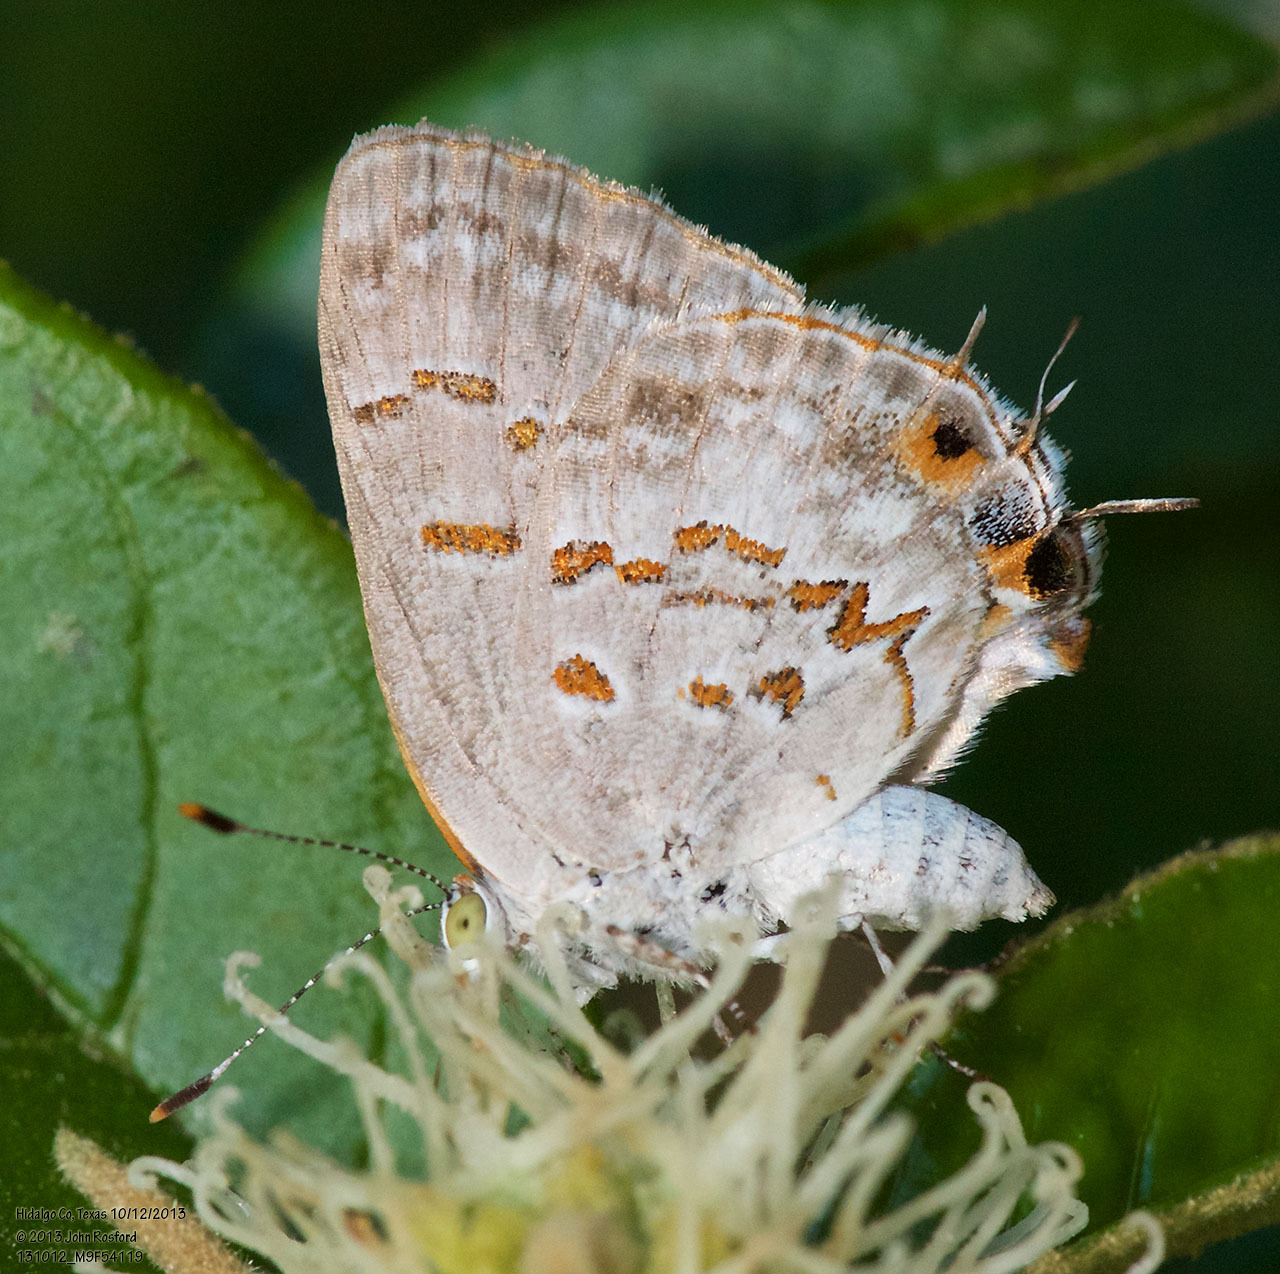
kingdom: Animalia
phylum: Arthropoda
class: Insecta
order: Lepidoptera
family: Lycaenidae
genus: Ministrymon
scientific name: Ministrymon clytie
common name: Clytie ministreak
